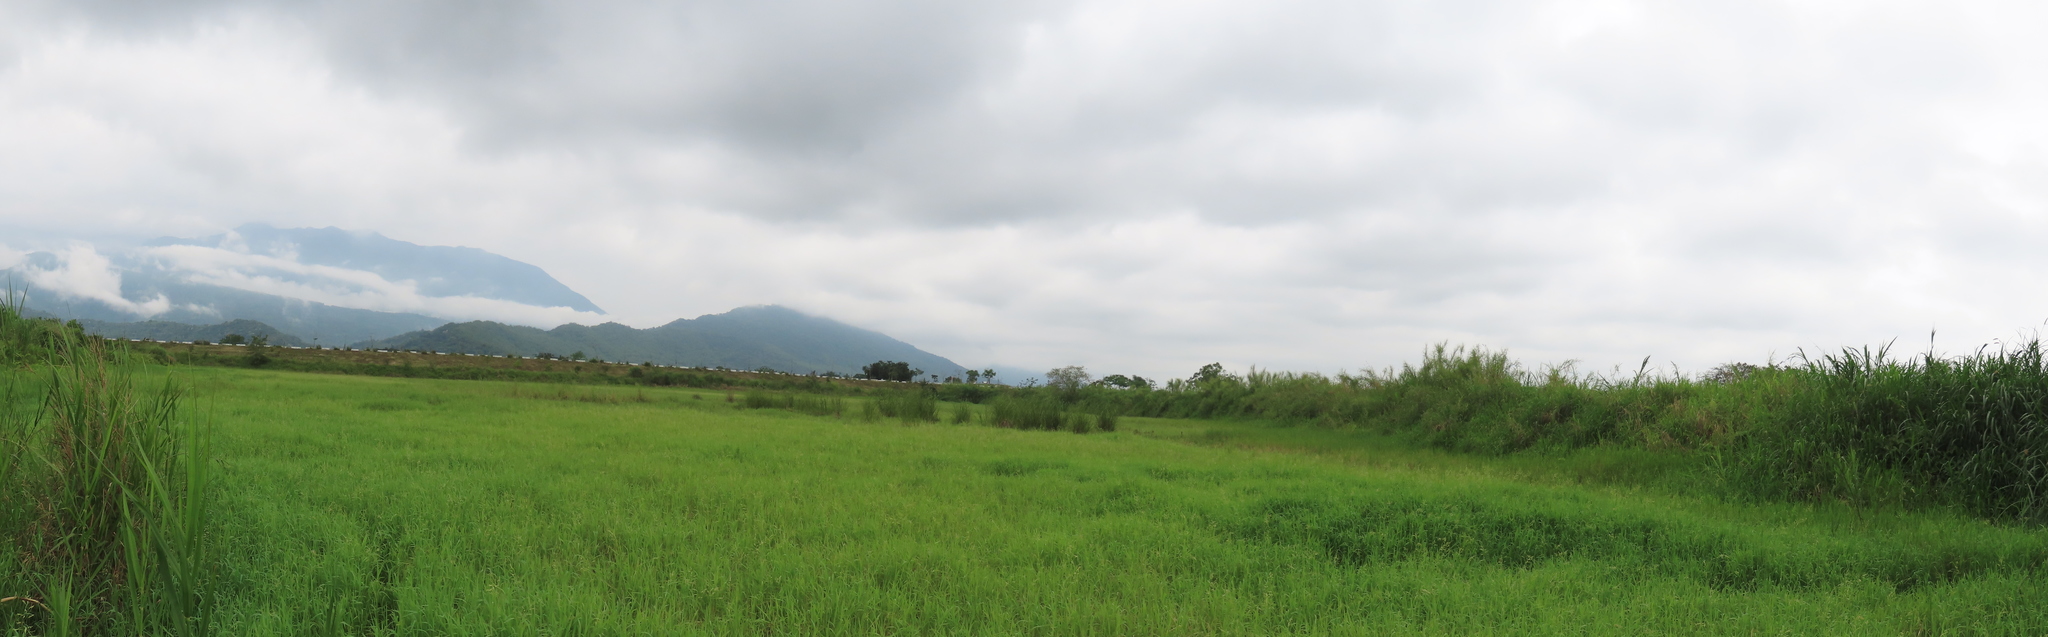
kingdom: Plantae
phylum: Tracheophyta
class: Liliopsida
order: Poales
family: Cyperaceae
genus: Cladium
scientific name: Cladium mariscus
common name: Great fen-sedge
